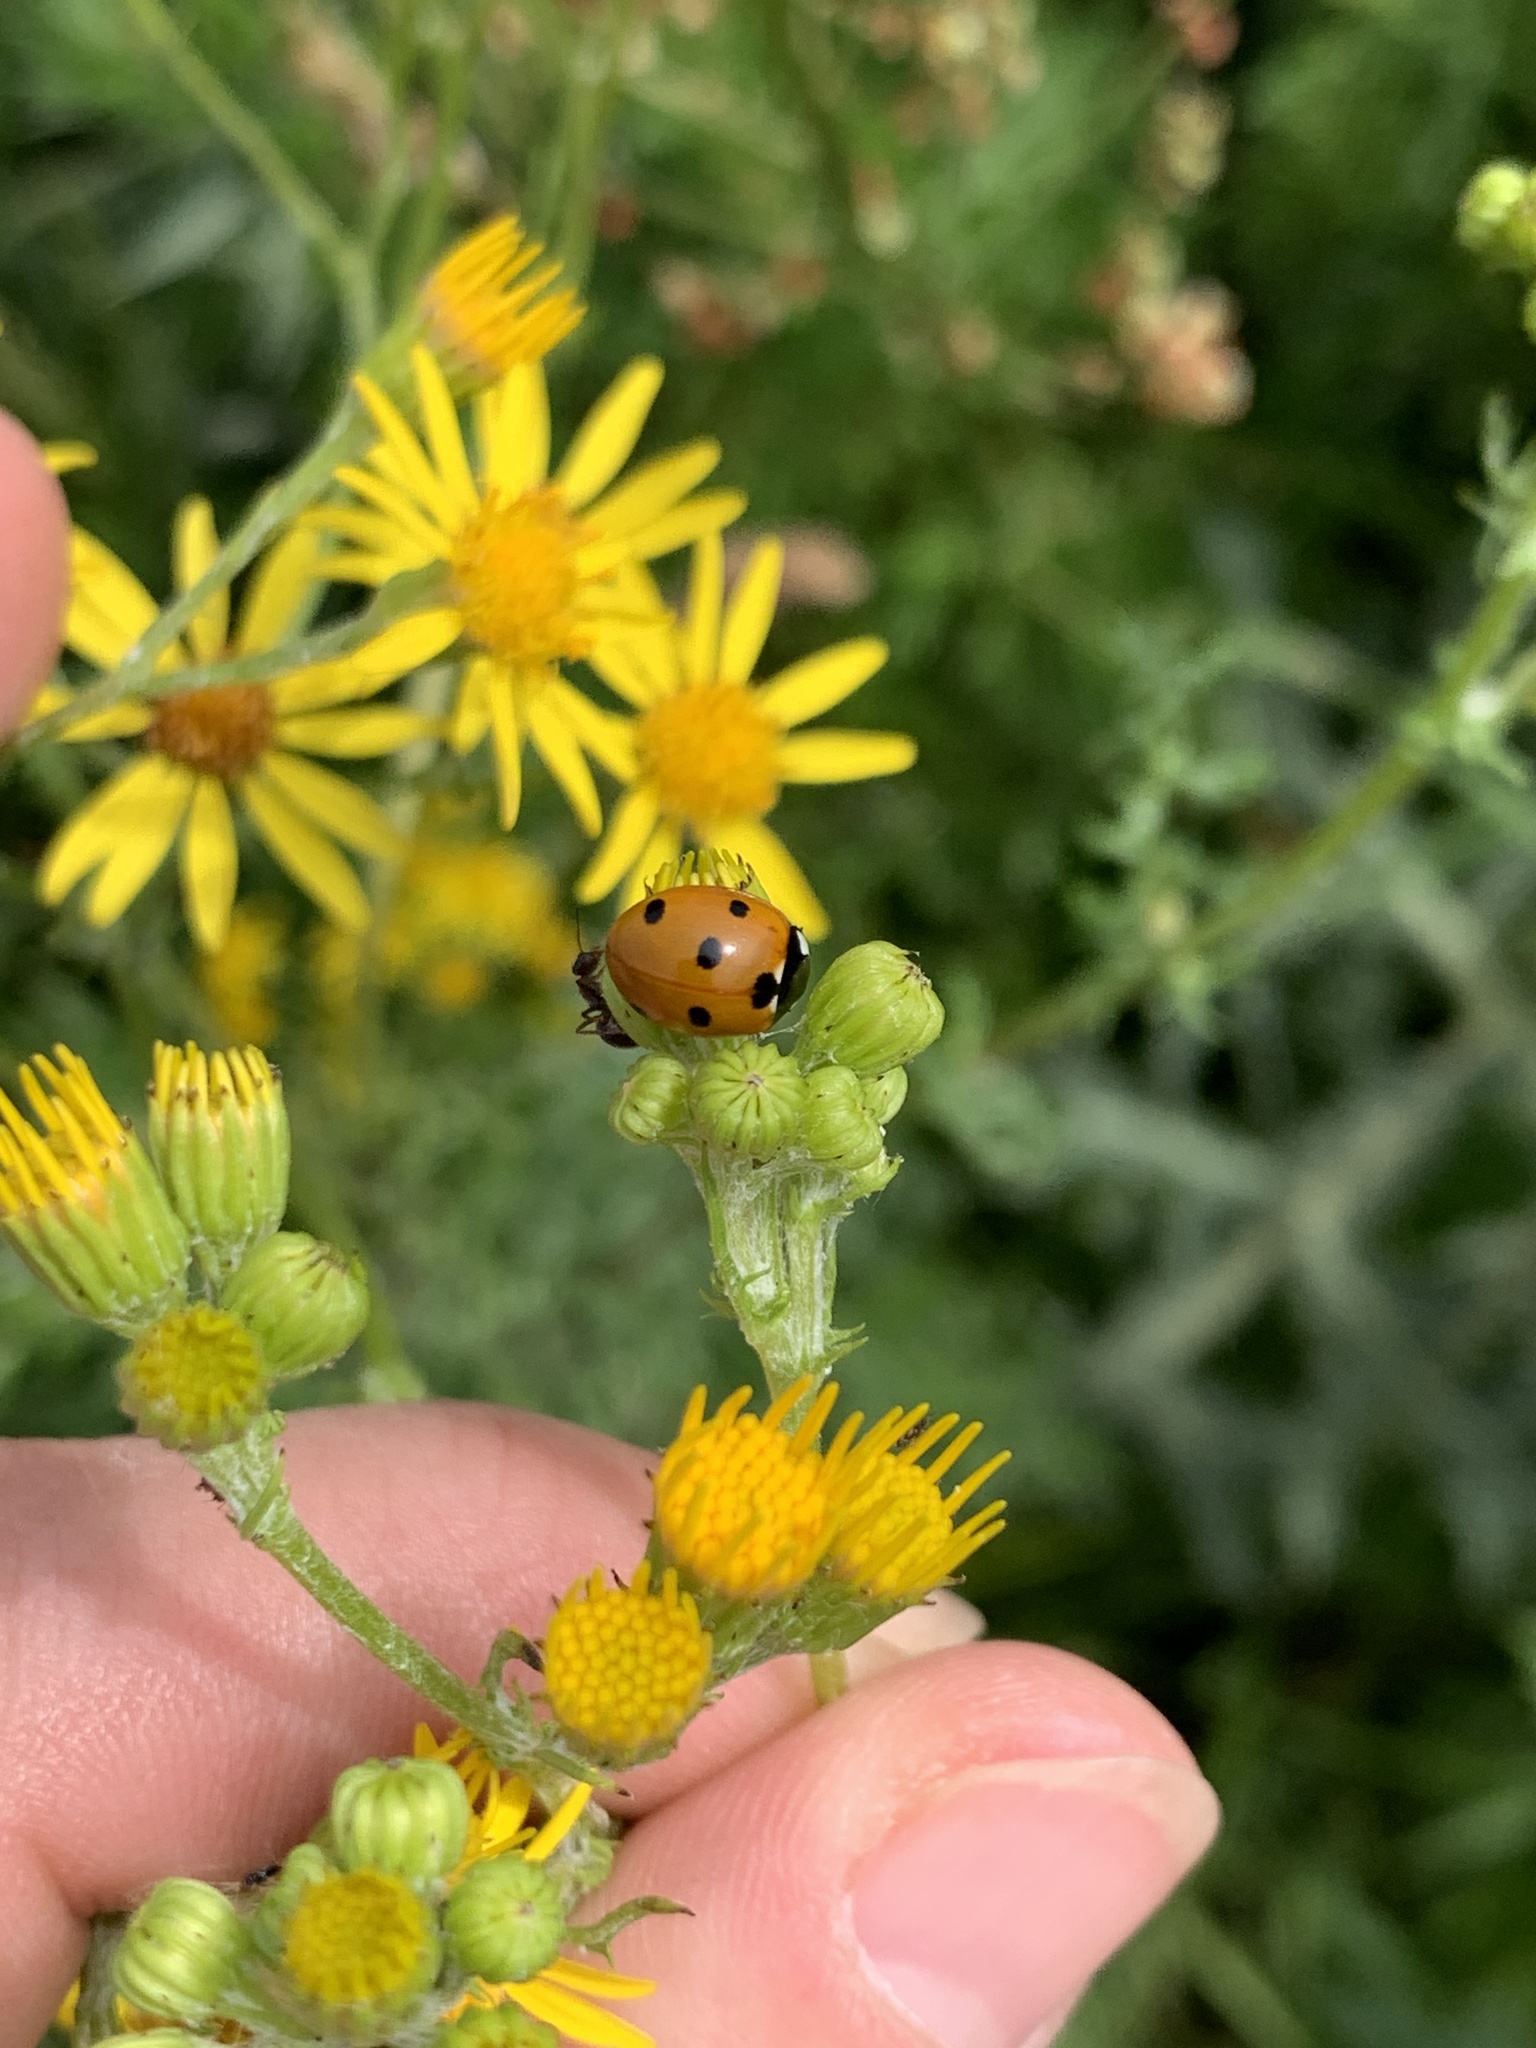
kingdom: Animalia
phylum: Arthropoda
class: Insecta
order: Coleoptera
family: Coccinellidae
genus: Coccinella
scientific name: Coccinella septempunctata
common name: Sevenspotted lady beetle
